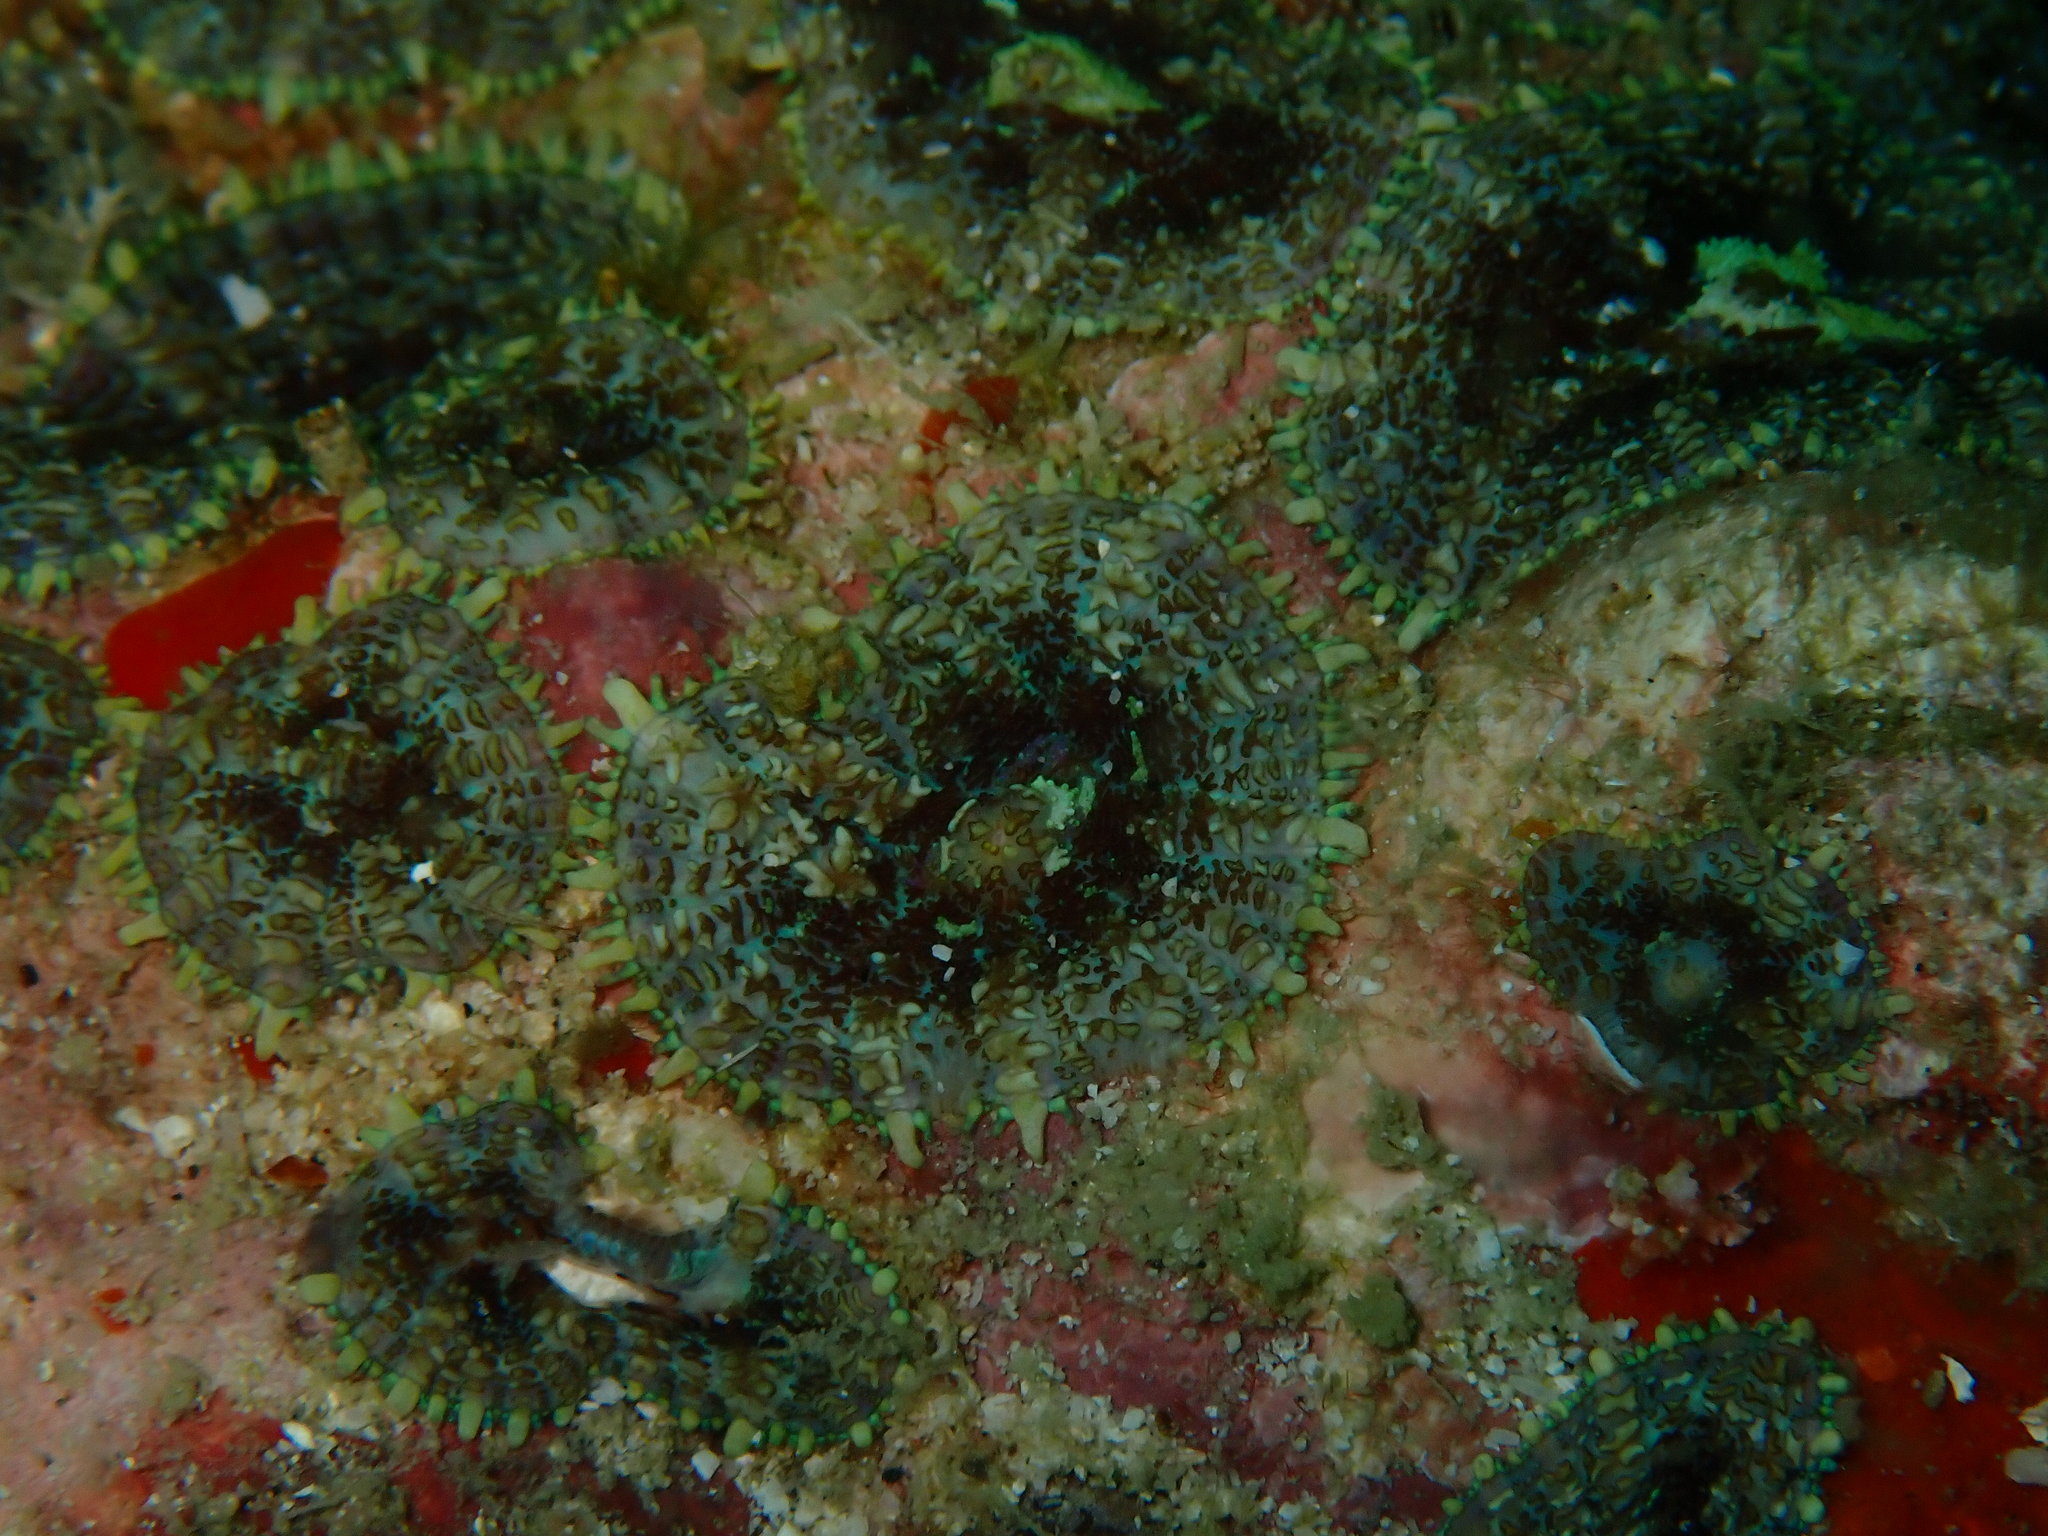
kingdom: Animalia
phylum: Cnidaria
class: Anthozoa
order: Corallimorpharia
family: Discosomidae
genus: Rhodactis
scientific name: Rhodactis inchoata
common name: Tonga blue mushroom anemone
